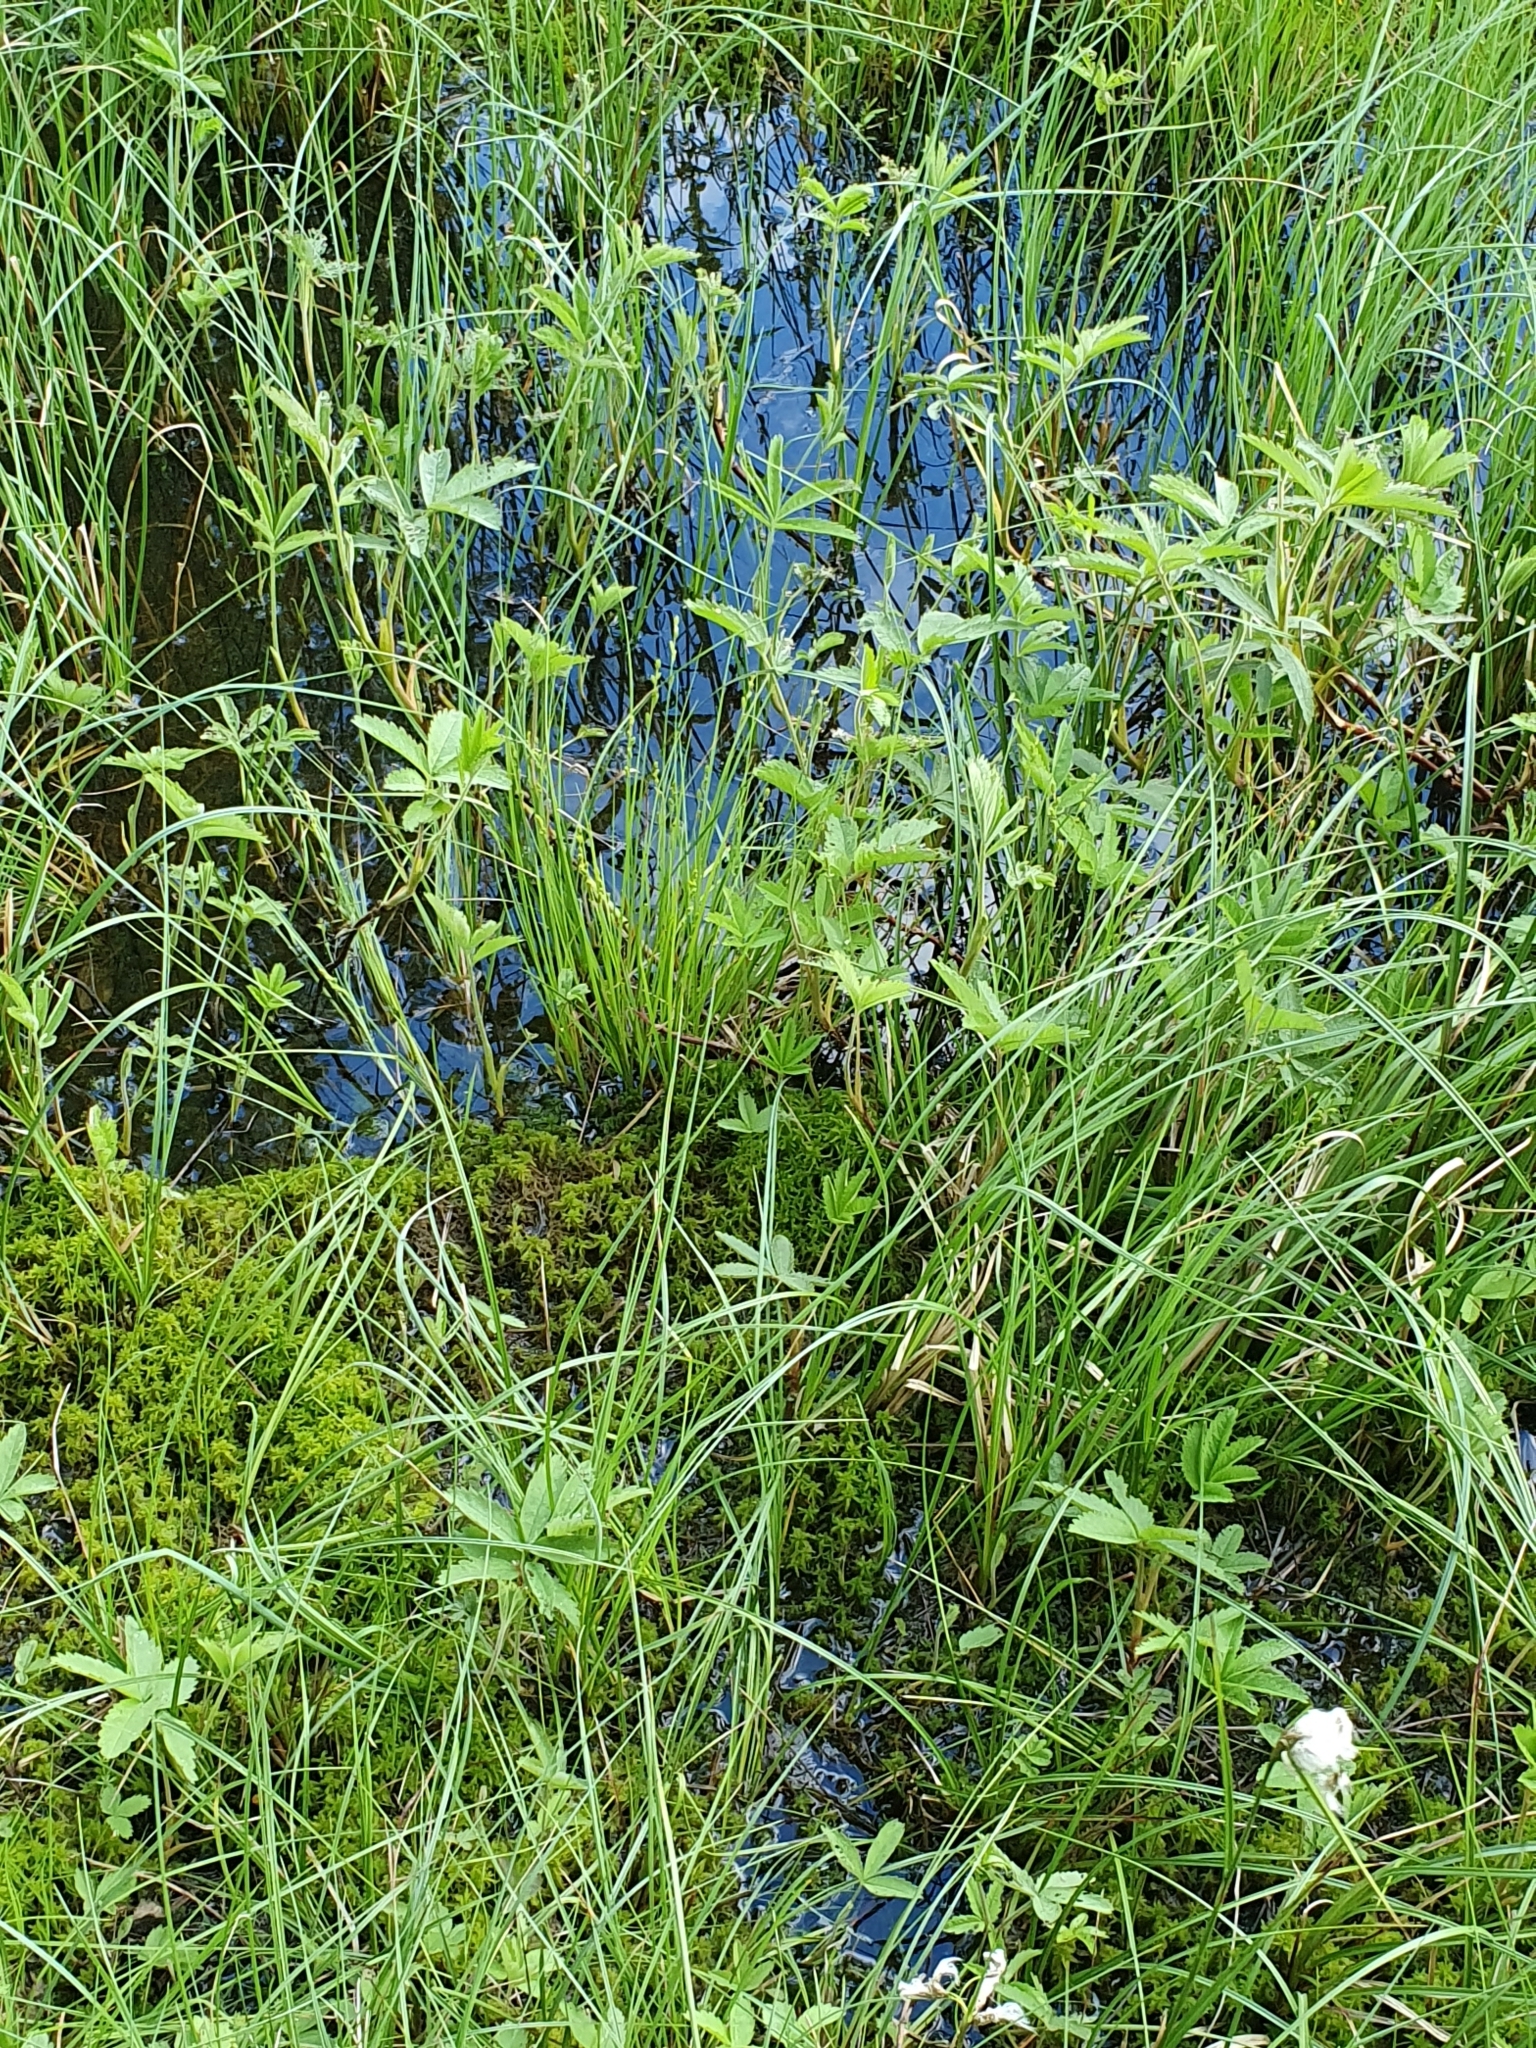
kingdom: Plantae
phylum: Tracheophyta
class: Magnoliopsida
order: Rosales
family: Rosaceae
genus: Comarum
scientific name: Comarum palustre
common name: Marsh cinquefoil
